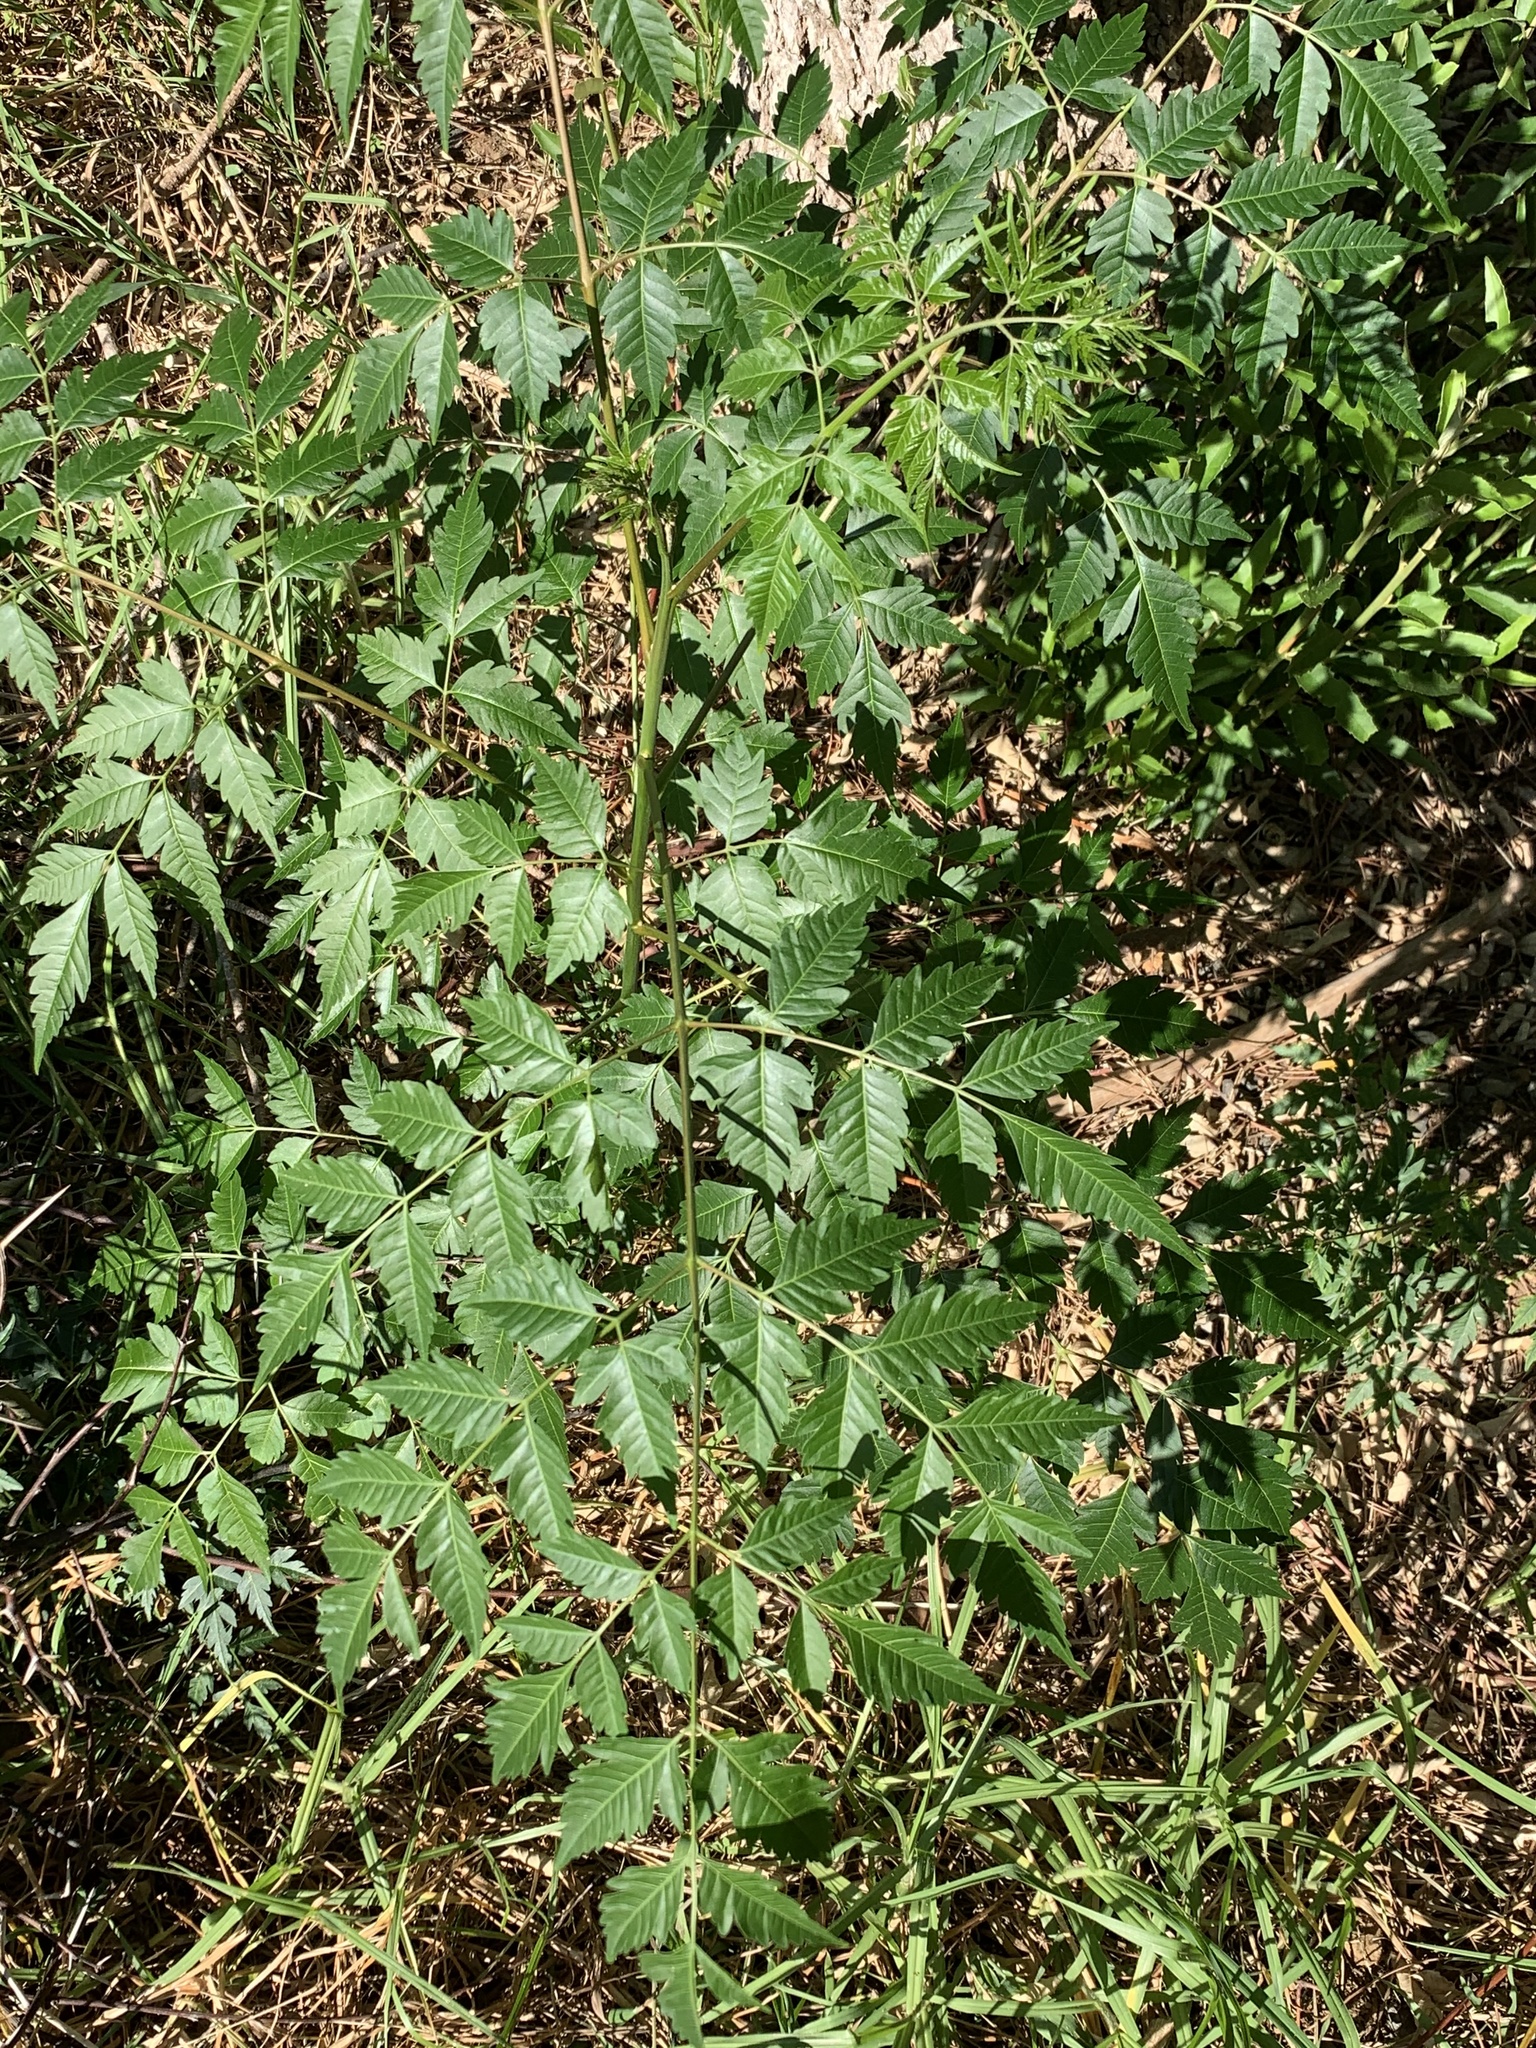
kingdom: Plantae
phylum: Tracheophyta
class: Magnoliopsida
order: Sapindales
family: Meliaceae
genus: Melia
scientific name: Melia azedarach
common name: Chinaberrytree
